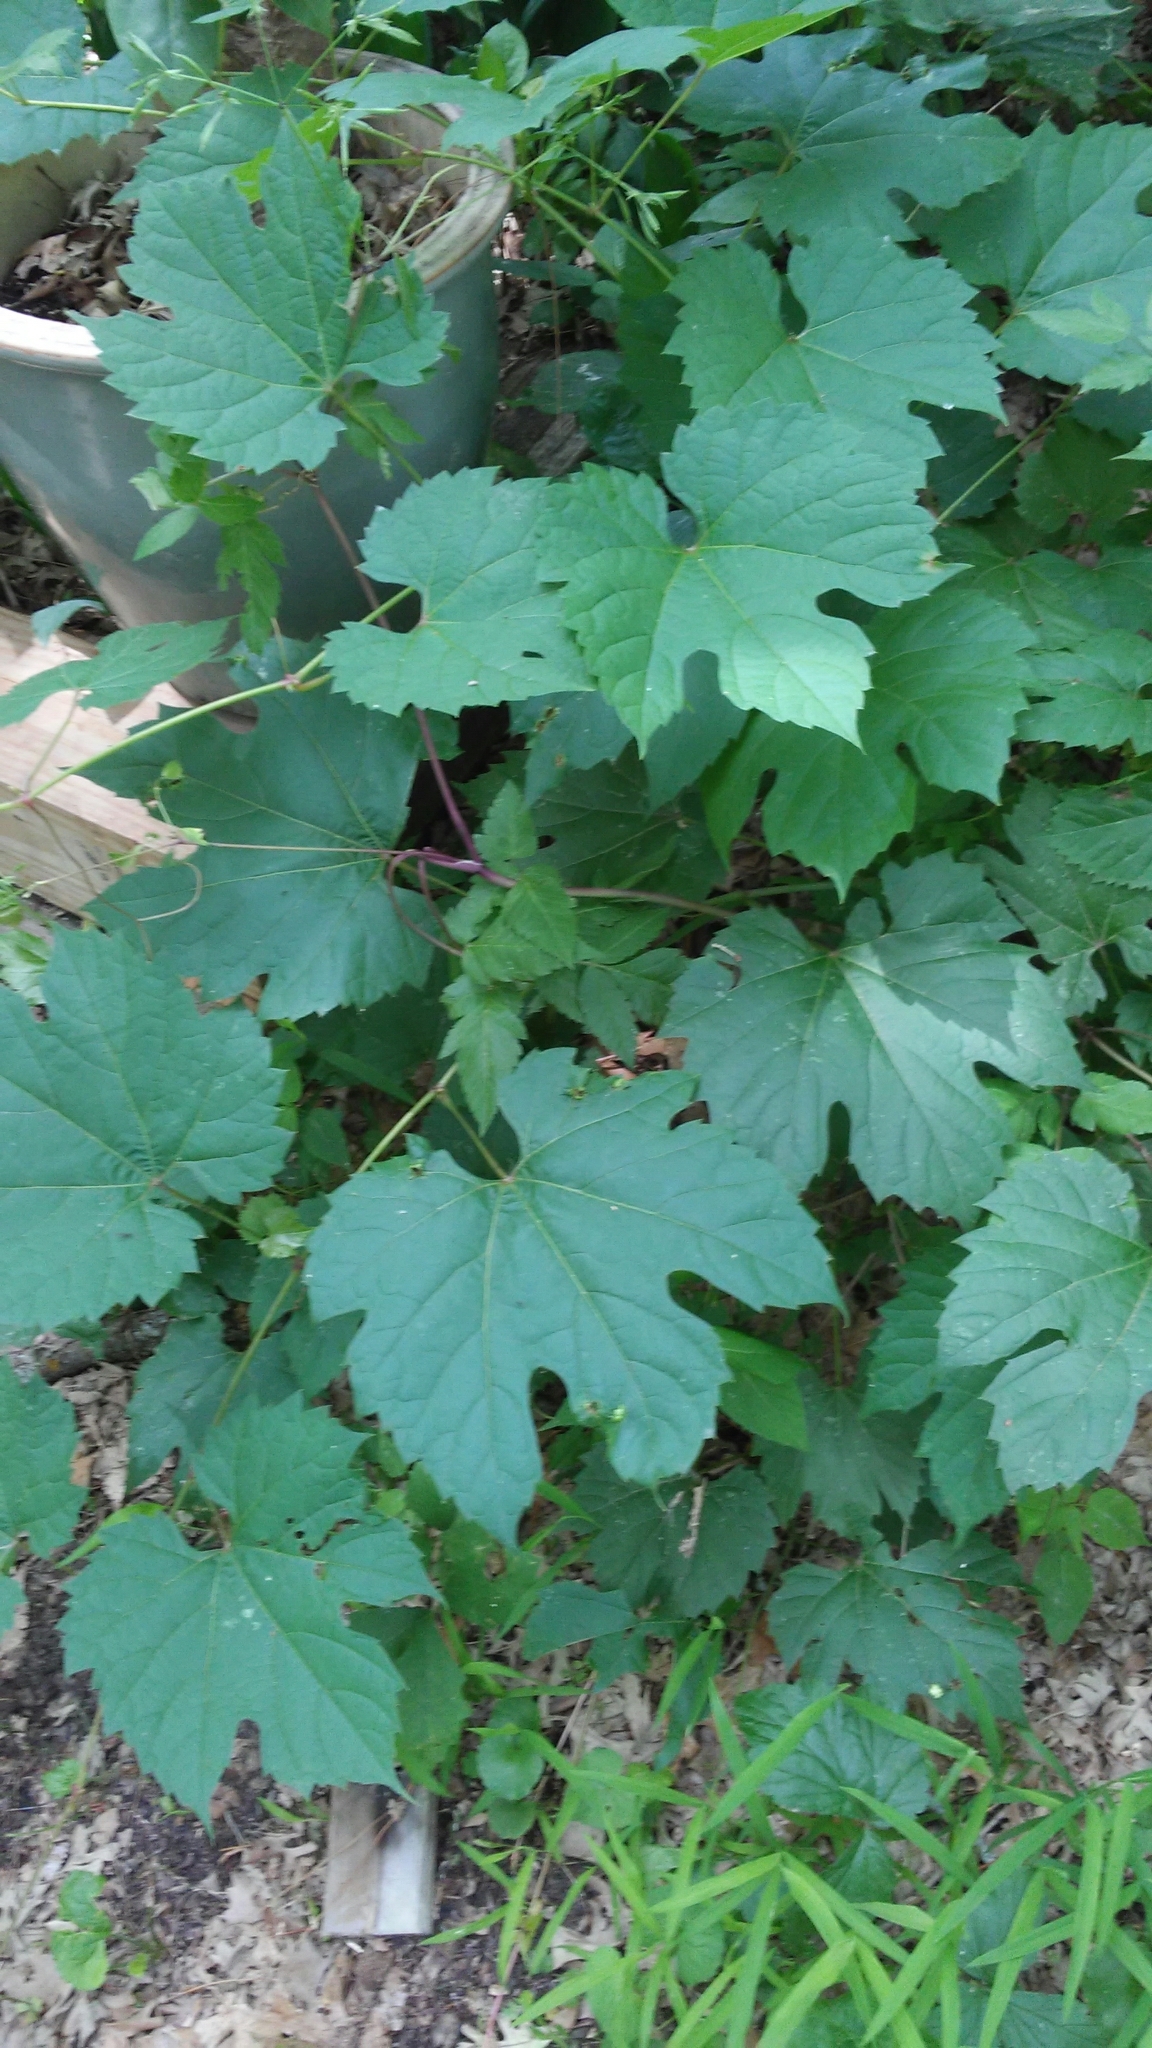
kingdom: Plantae
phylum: Tracheophyta
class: Magnoliopsida
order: Vitales
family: Vitaceae
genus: Vitis
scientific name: Vitis riparia
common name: Frost grape
